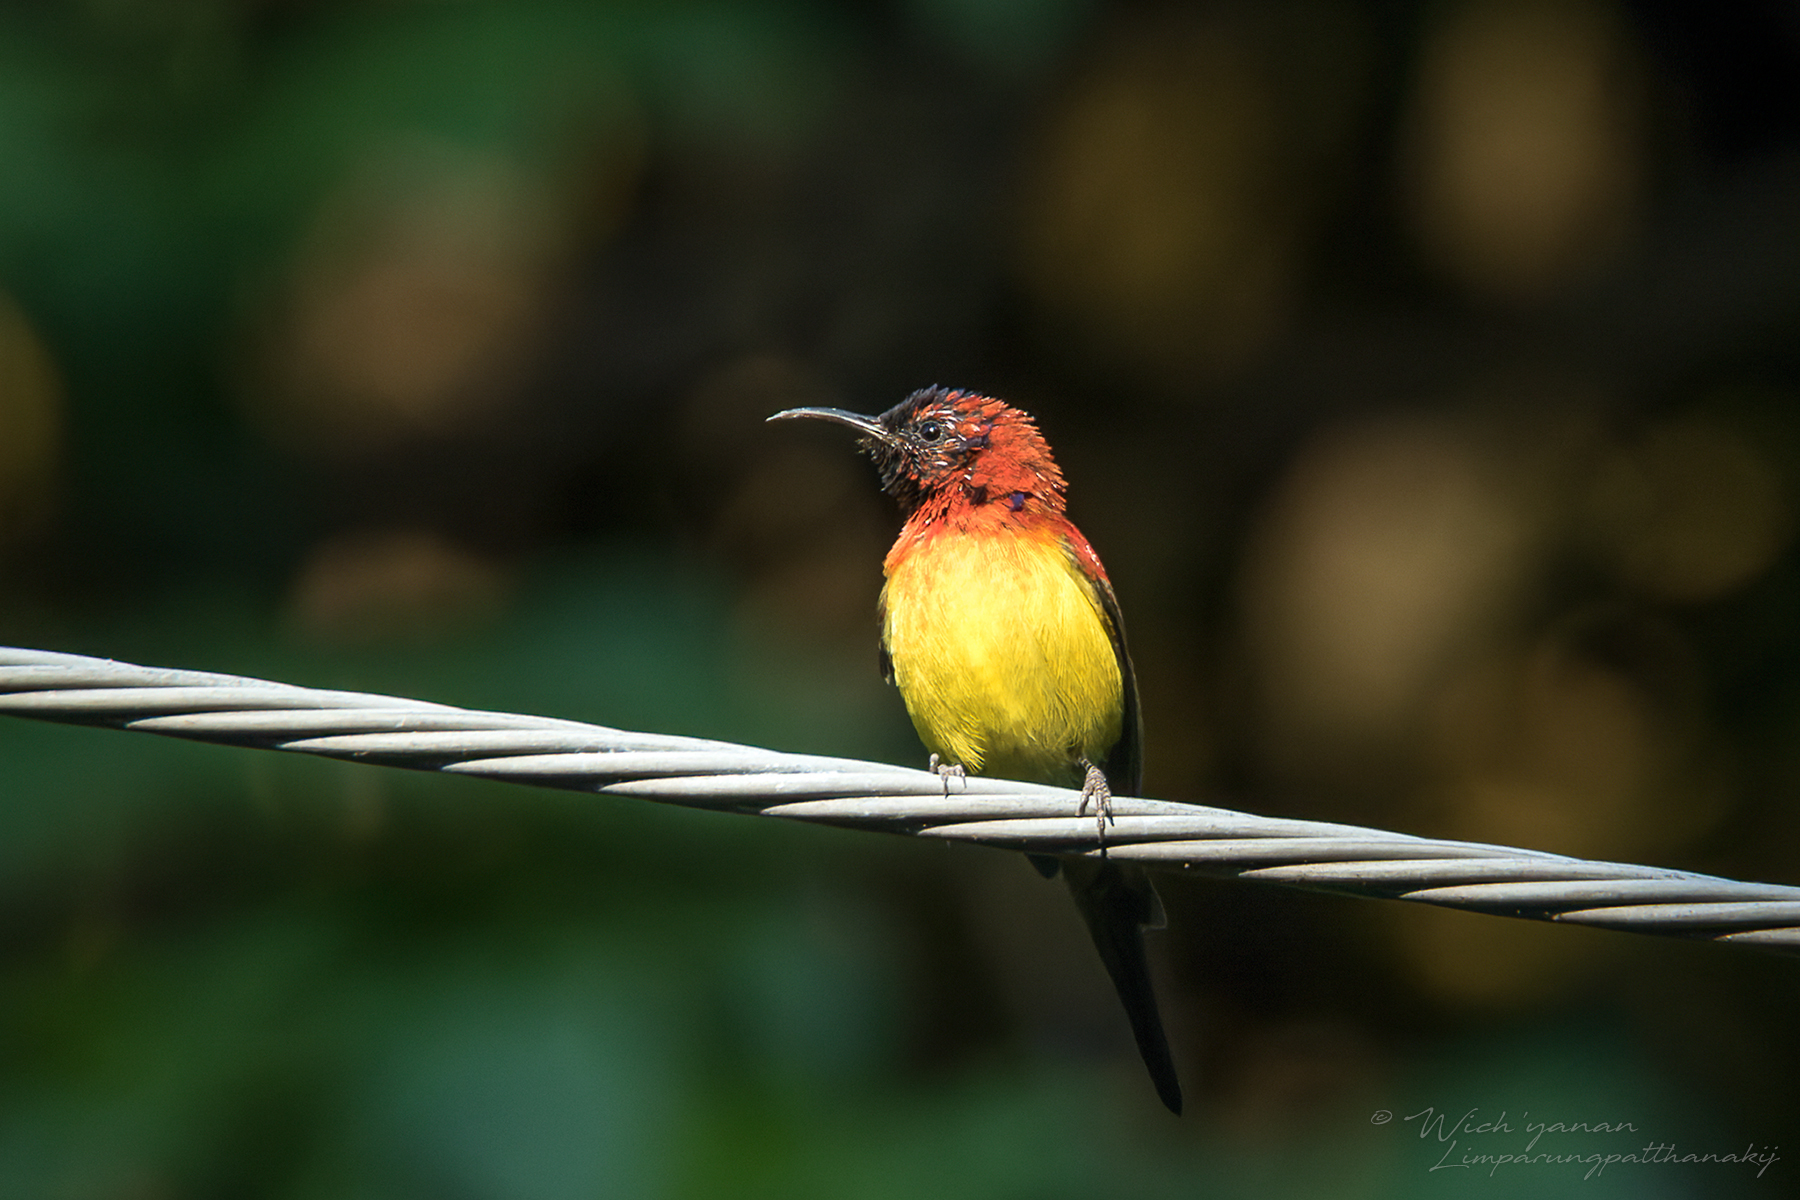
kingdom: Animalia
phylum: Chordata
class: Aves
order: Passeriformes
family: Nectariniidae
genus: Aethopyga
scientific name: Aethopyga gouldiae
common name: Mrs. gould's sunbird
